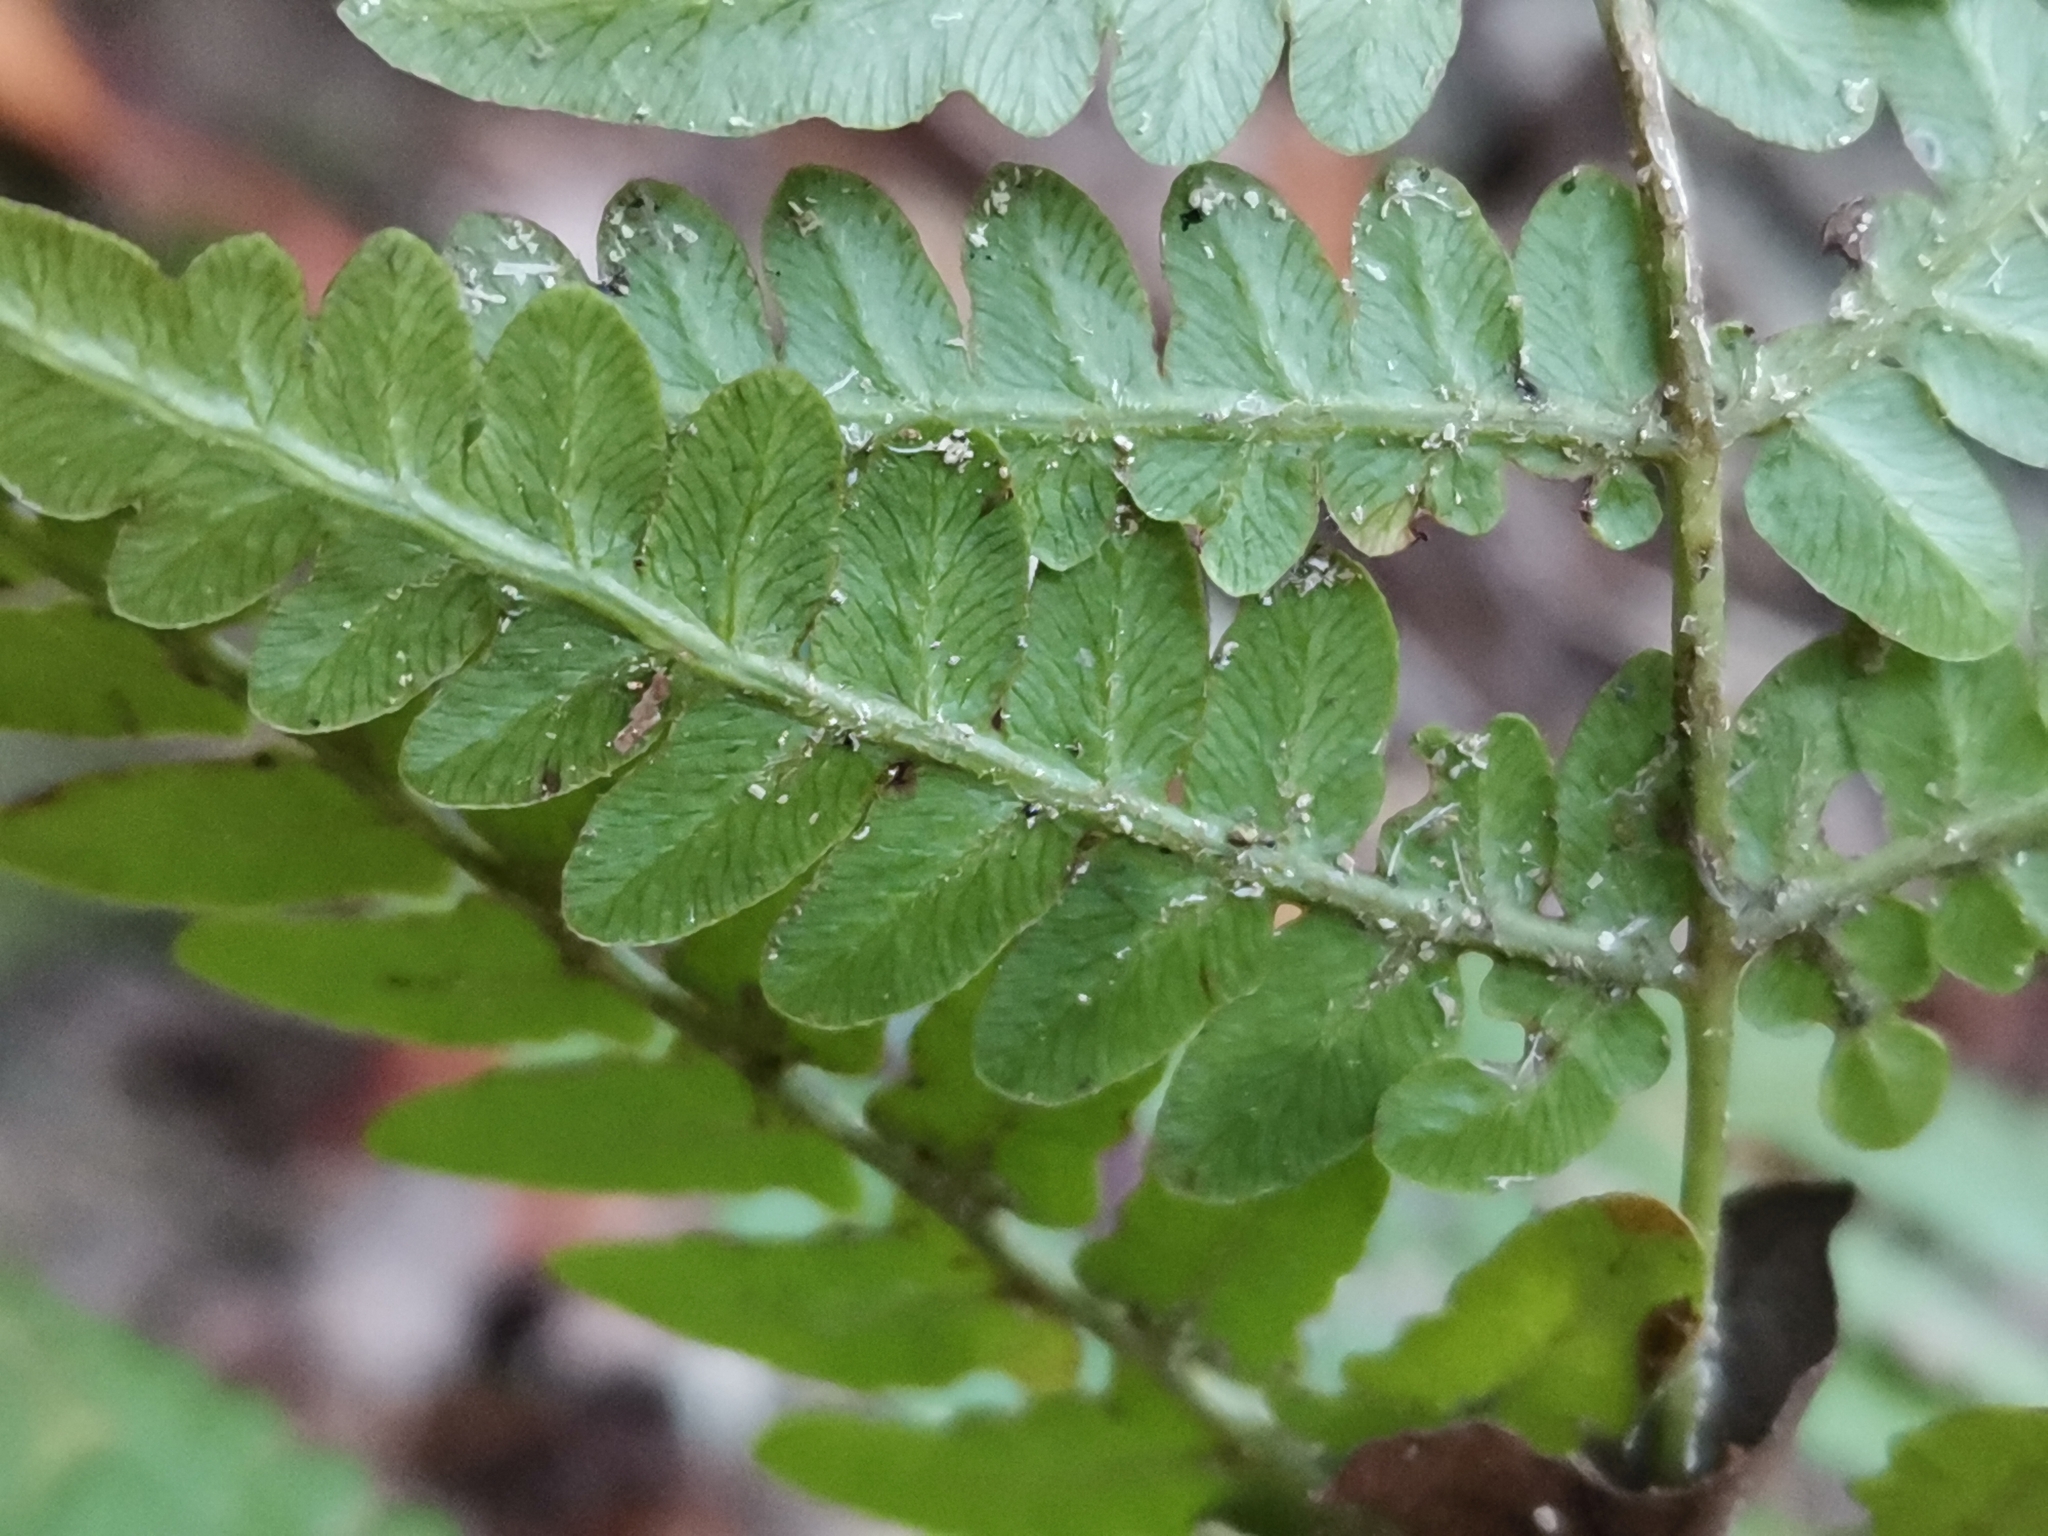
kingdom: Plantae
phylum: Tracheophyta
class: Polypodiopsida
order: Polypodiales
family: Dennstaedtiaceae
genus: Pteridium
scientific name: Pteridium aquilinum
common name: Bracken
